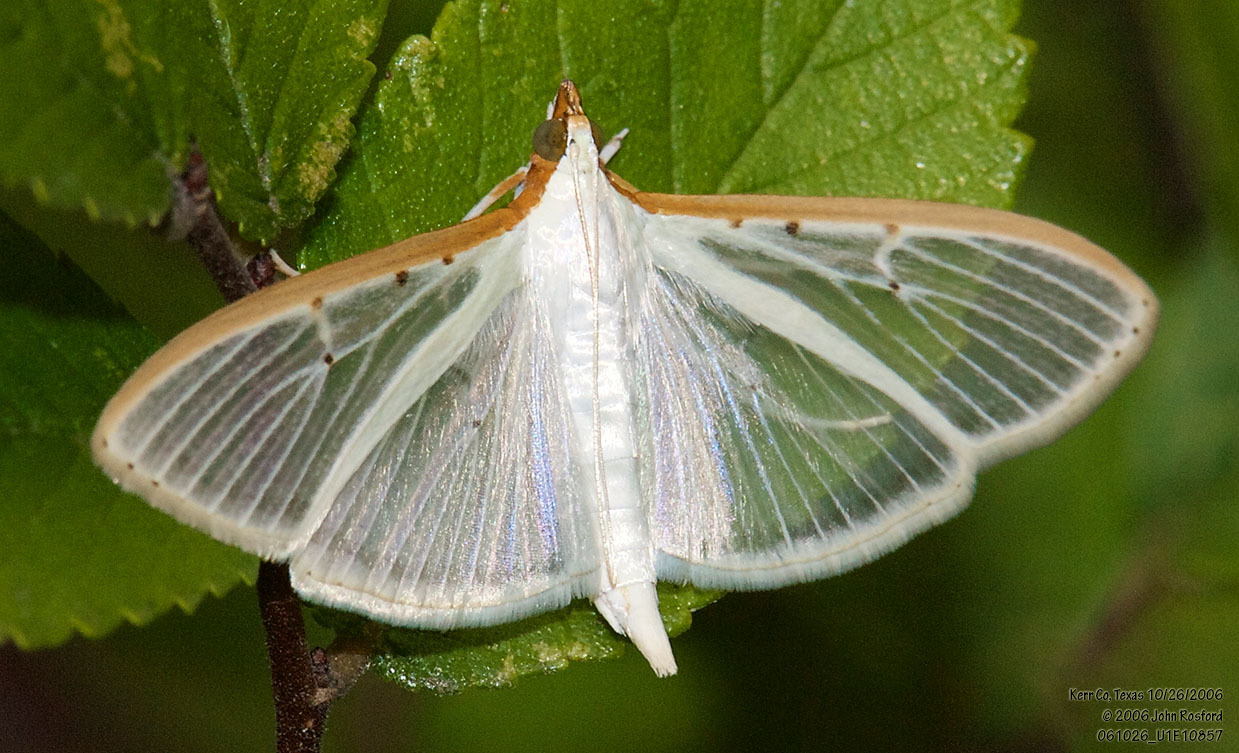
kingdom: Animalia
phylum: Arthropoda
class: Insecta
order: Lepidoptera
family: Crambidae
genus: Palpita
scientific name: Palpita quadristigmalis
